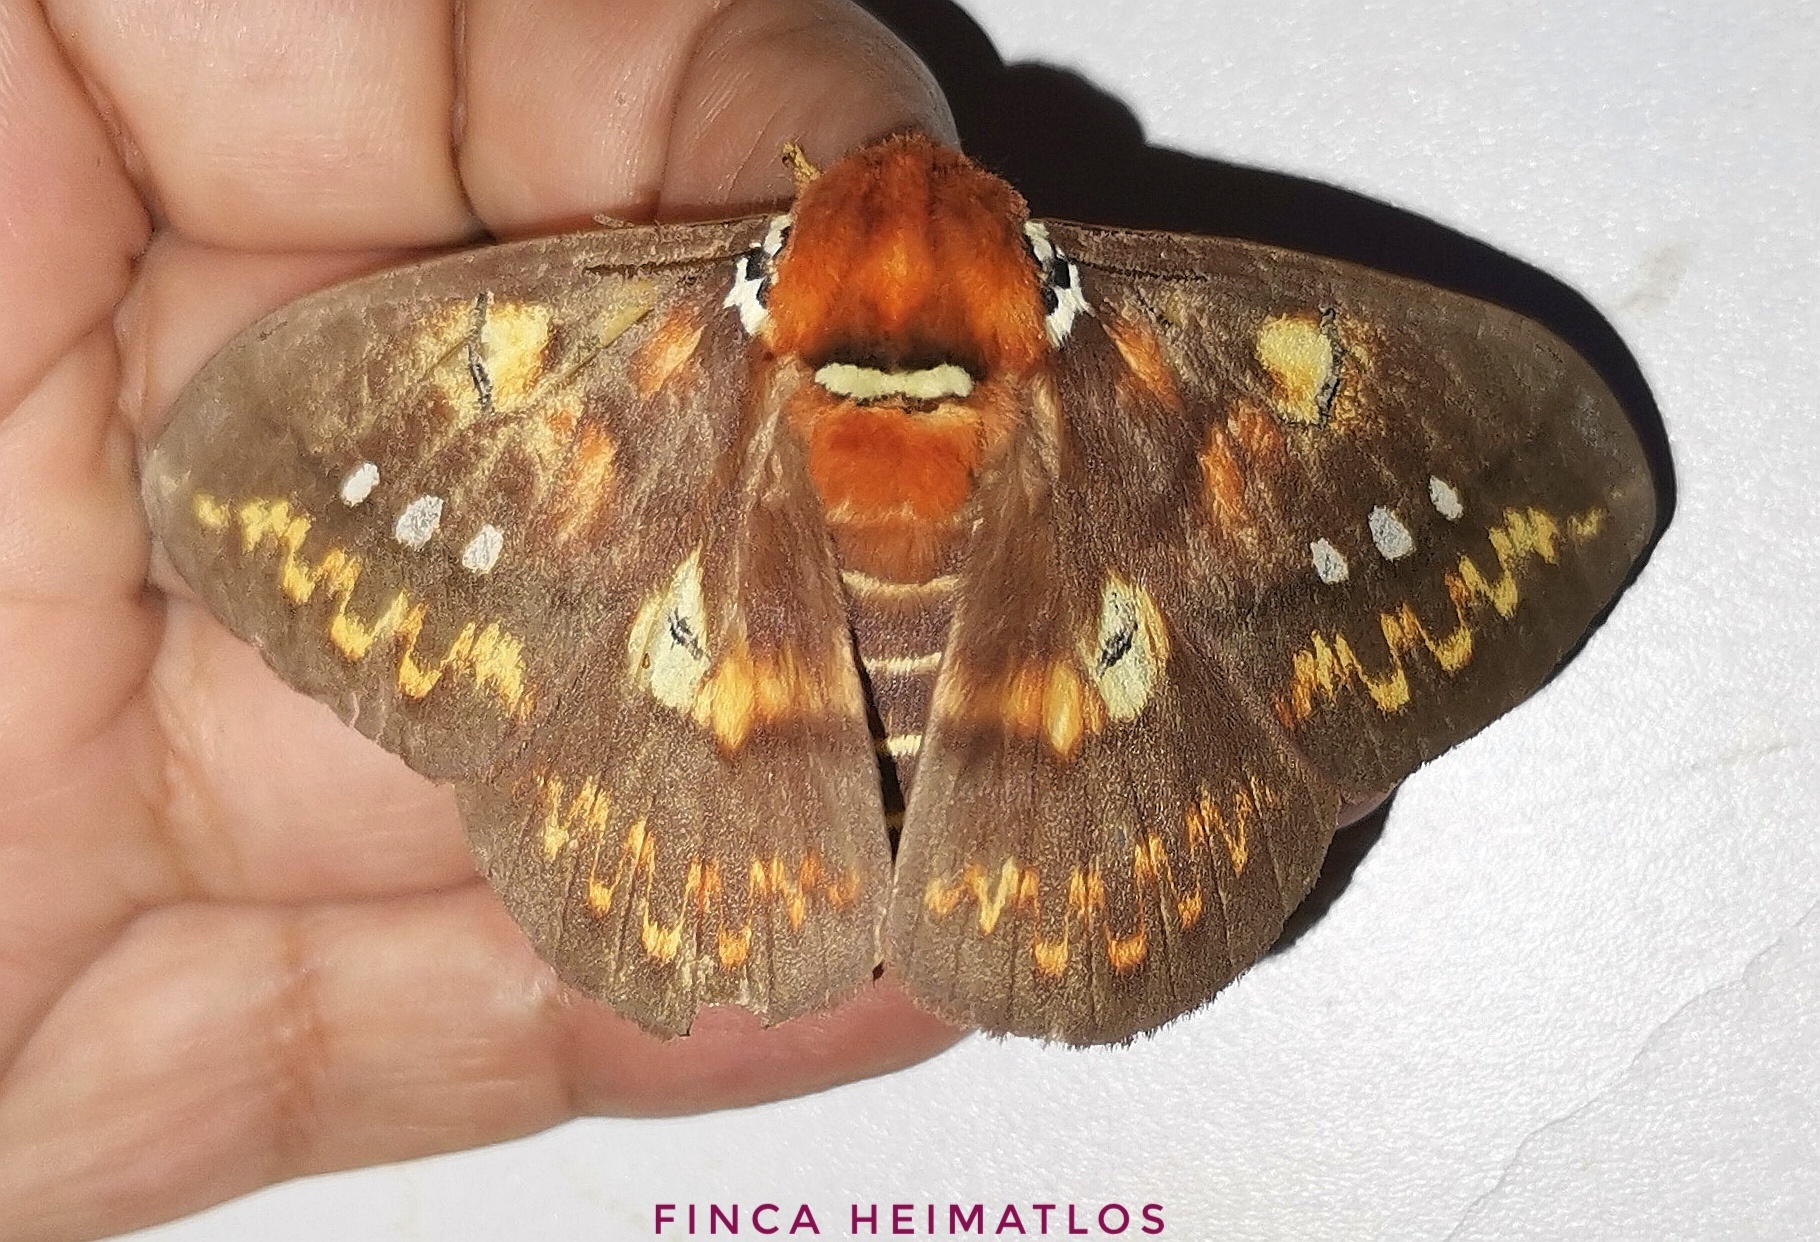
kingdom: Animalia
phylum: Arthropoda
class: Insecta
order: Lepidoptera
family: Saturniidae
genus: Procitheronia
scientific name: Procitheronia fenestrata
